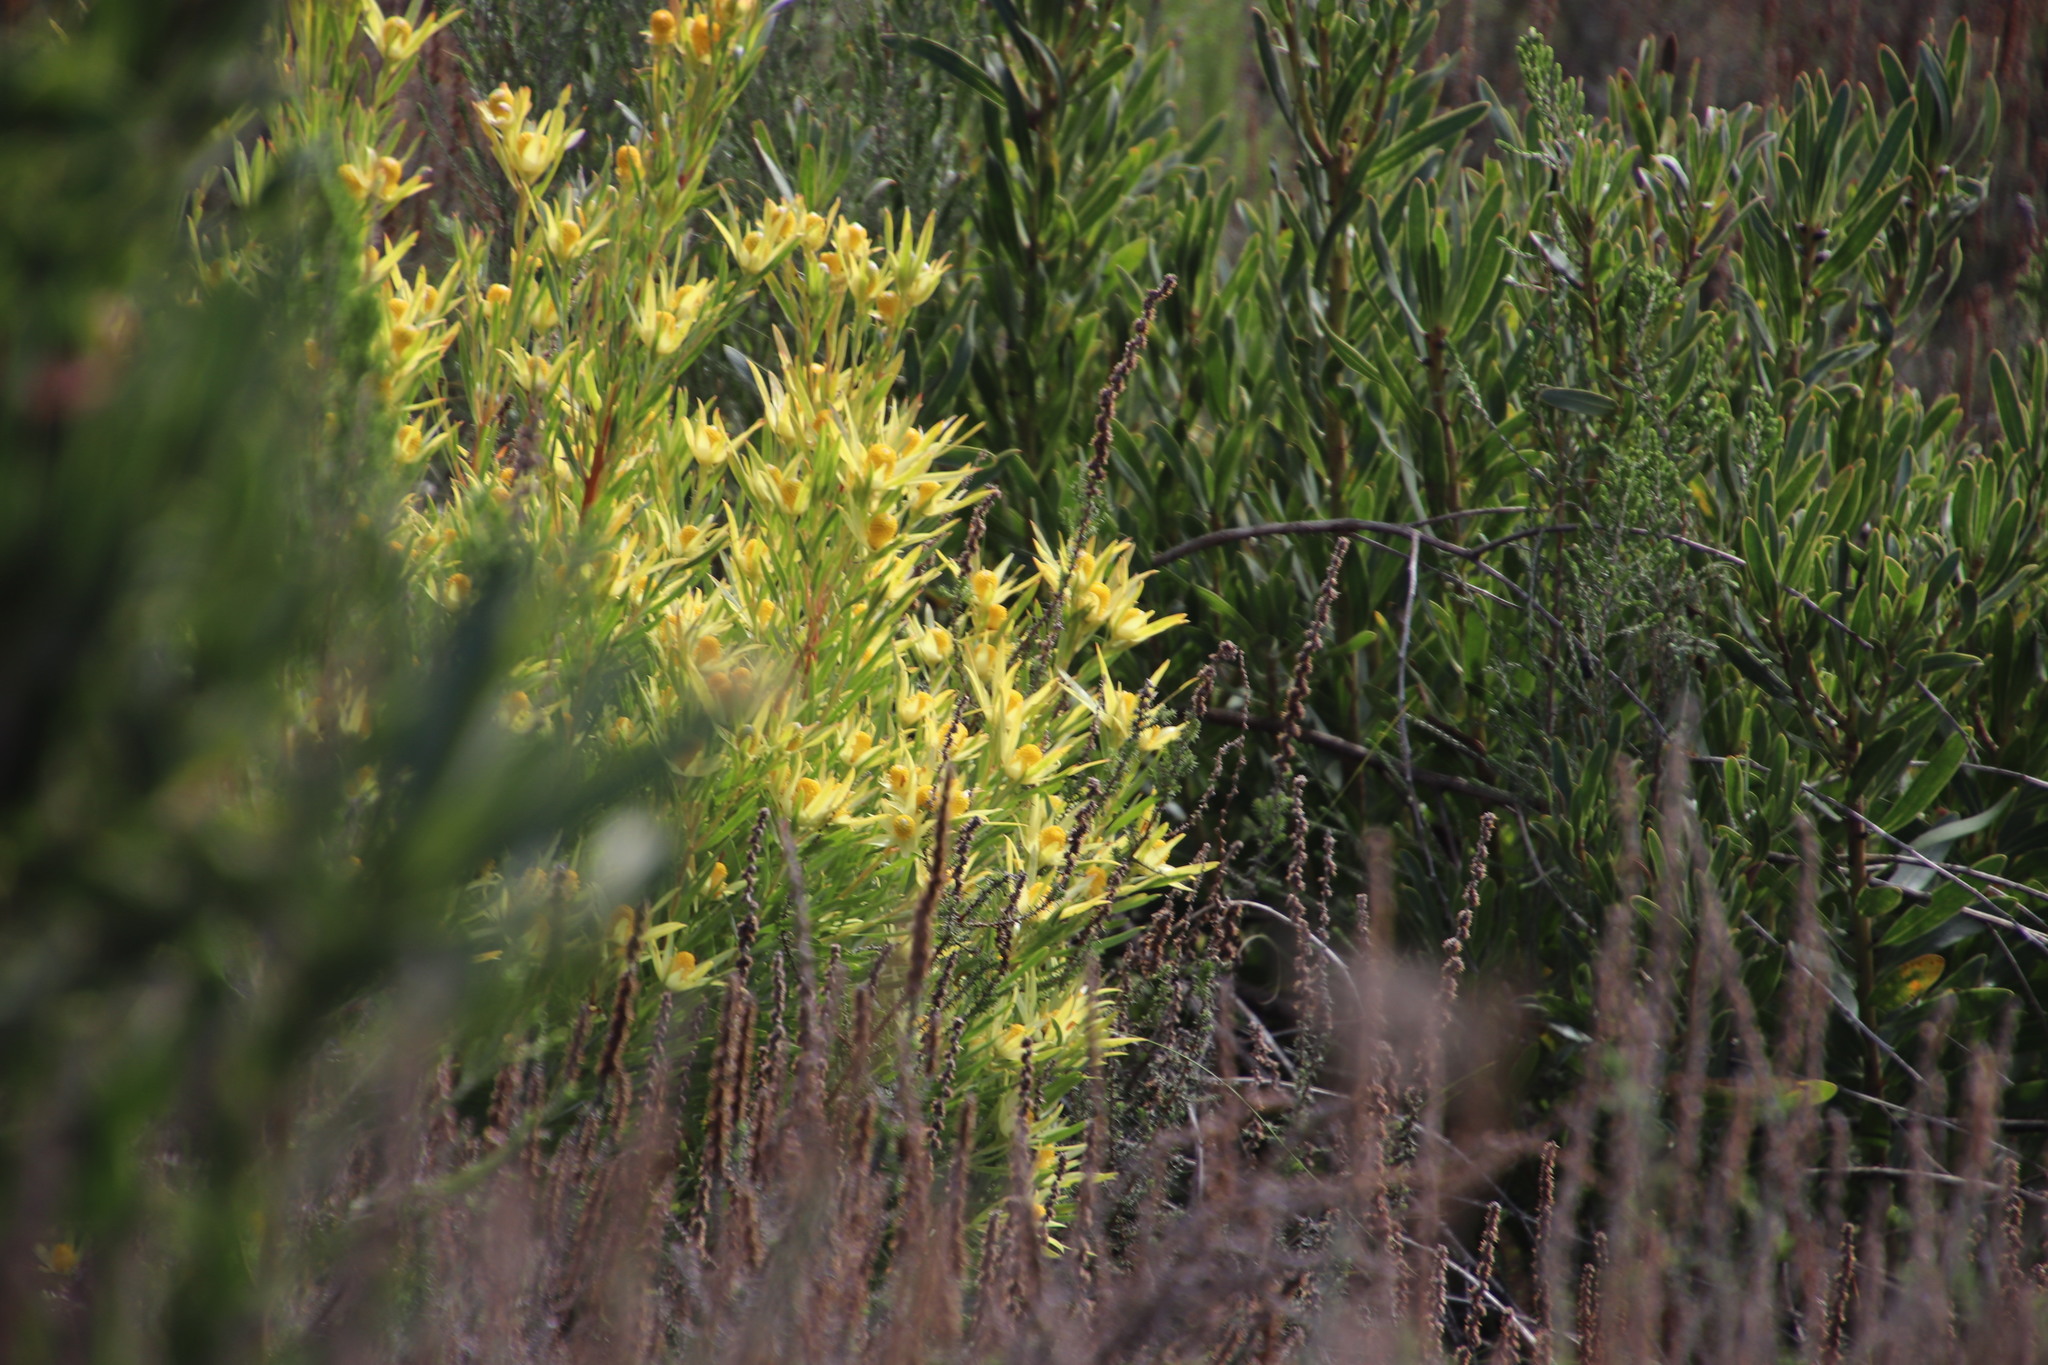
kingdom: Plantae
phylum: Tracheophyta
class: Magnoliopsida
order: Proteales
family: Proteaceae
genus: Leucadendron
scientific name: Leucadendron xanthoconus
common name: Sickle-leaf conebush
